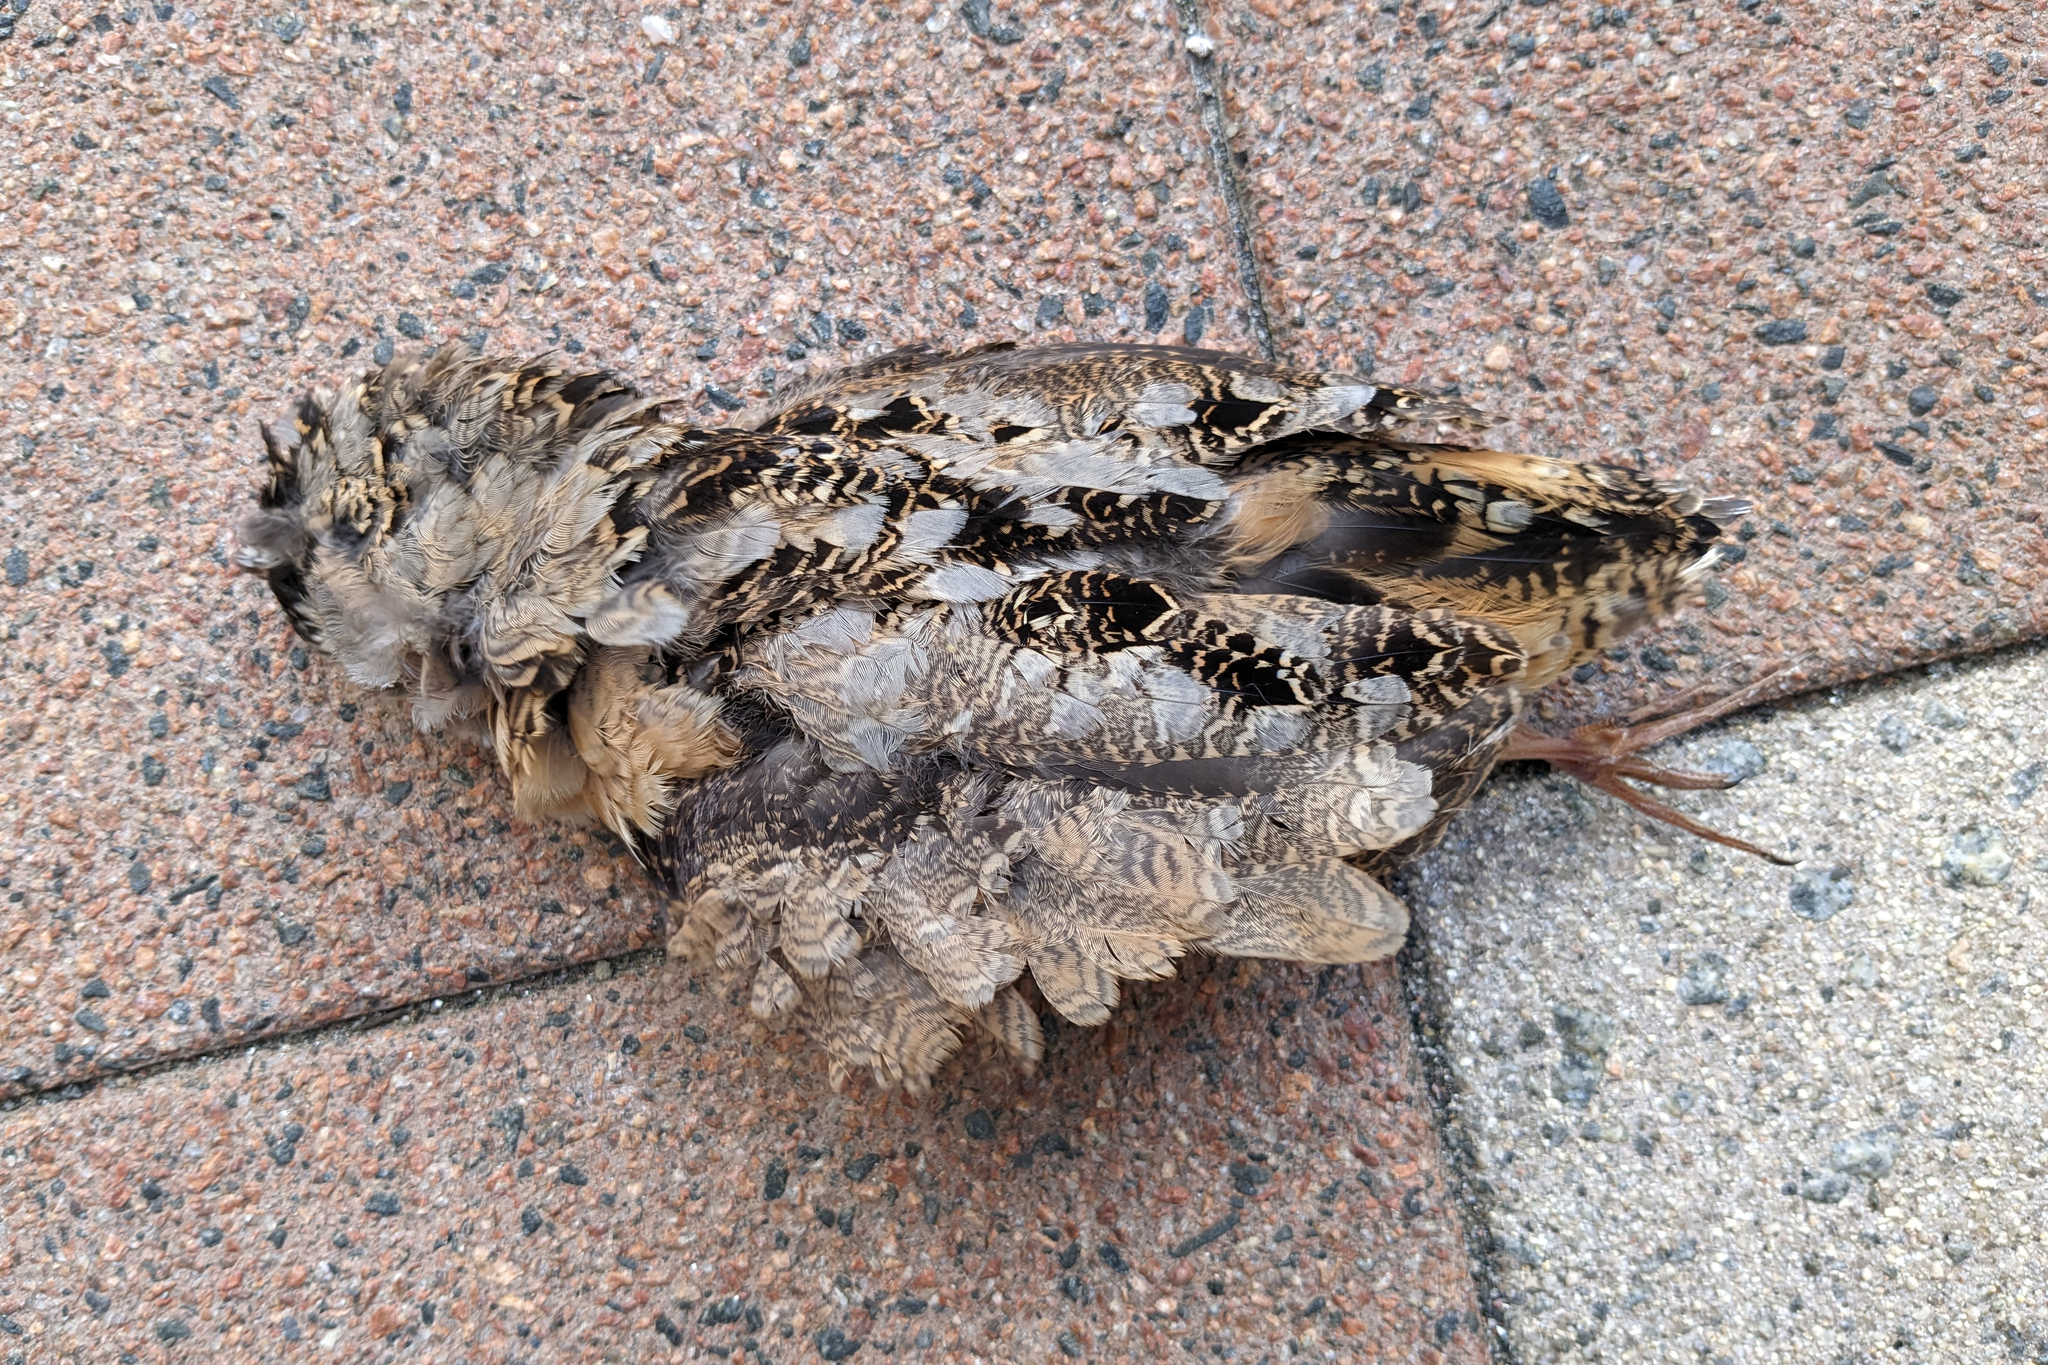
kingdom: Animalia
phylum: Chordata
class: Aves
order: Charadriiformes
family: Scolopacidae
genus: Scolopax
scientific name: Scolopax minor
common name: American woodcock
